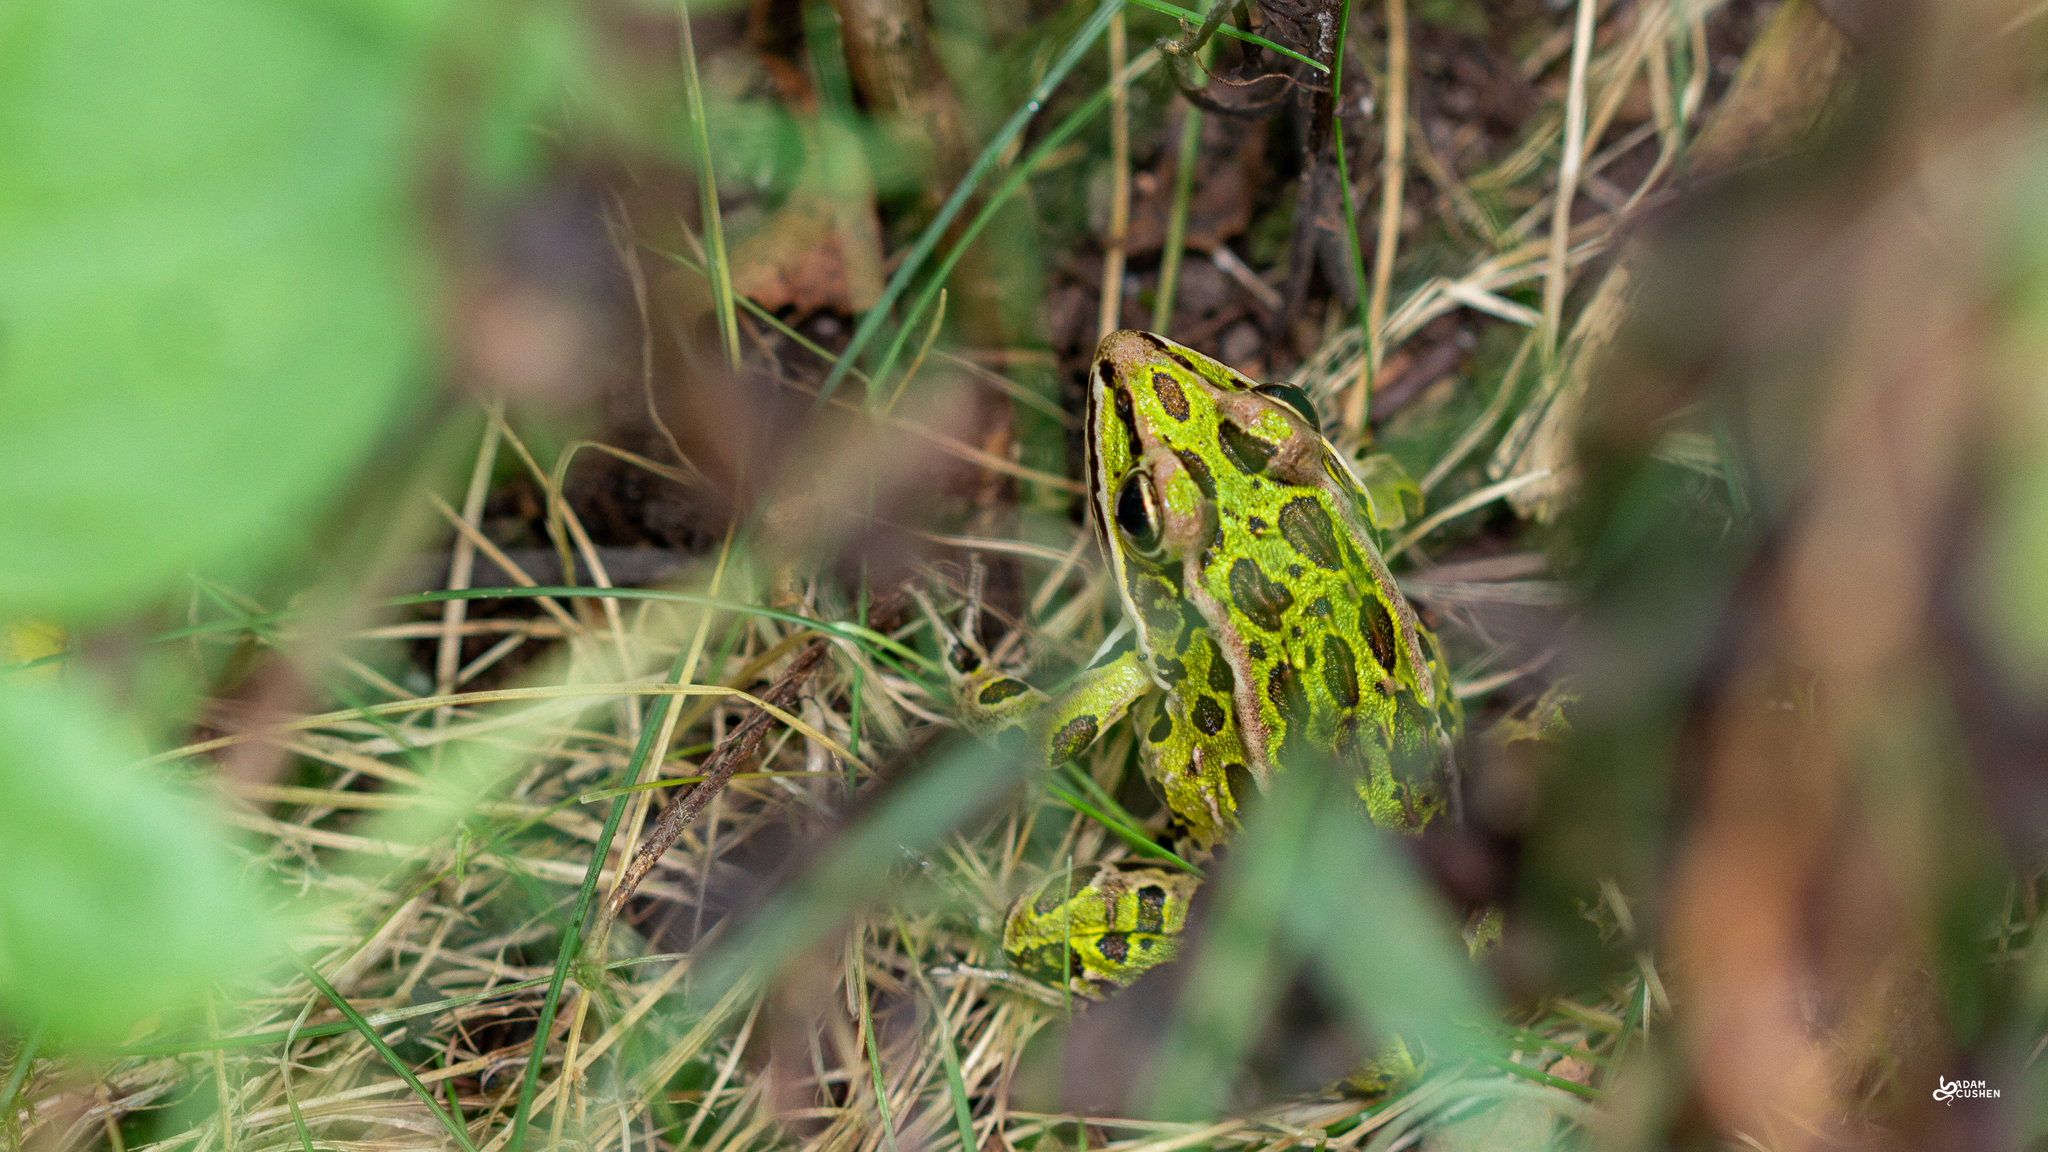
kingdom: Animalia
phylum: Chordata
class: Amphibia
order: Anura
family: Ranidae
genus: Lithobates
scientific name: Lithobates pipiens
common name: Northern leopard frog
